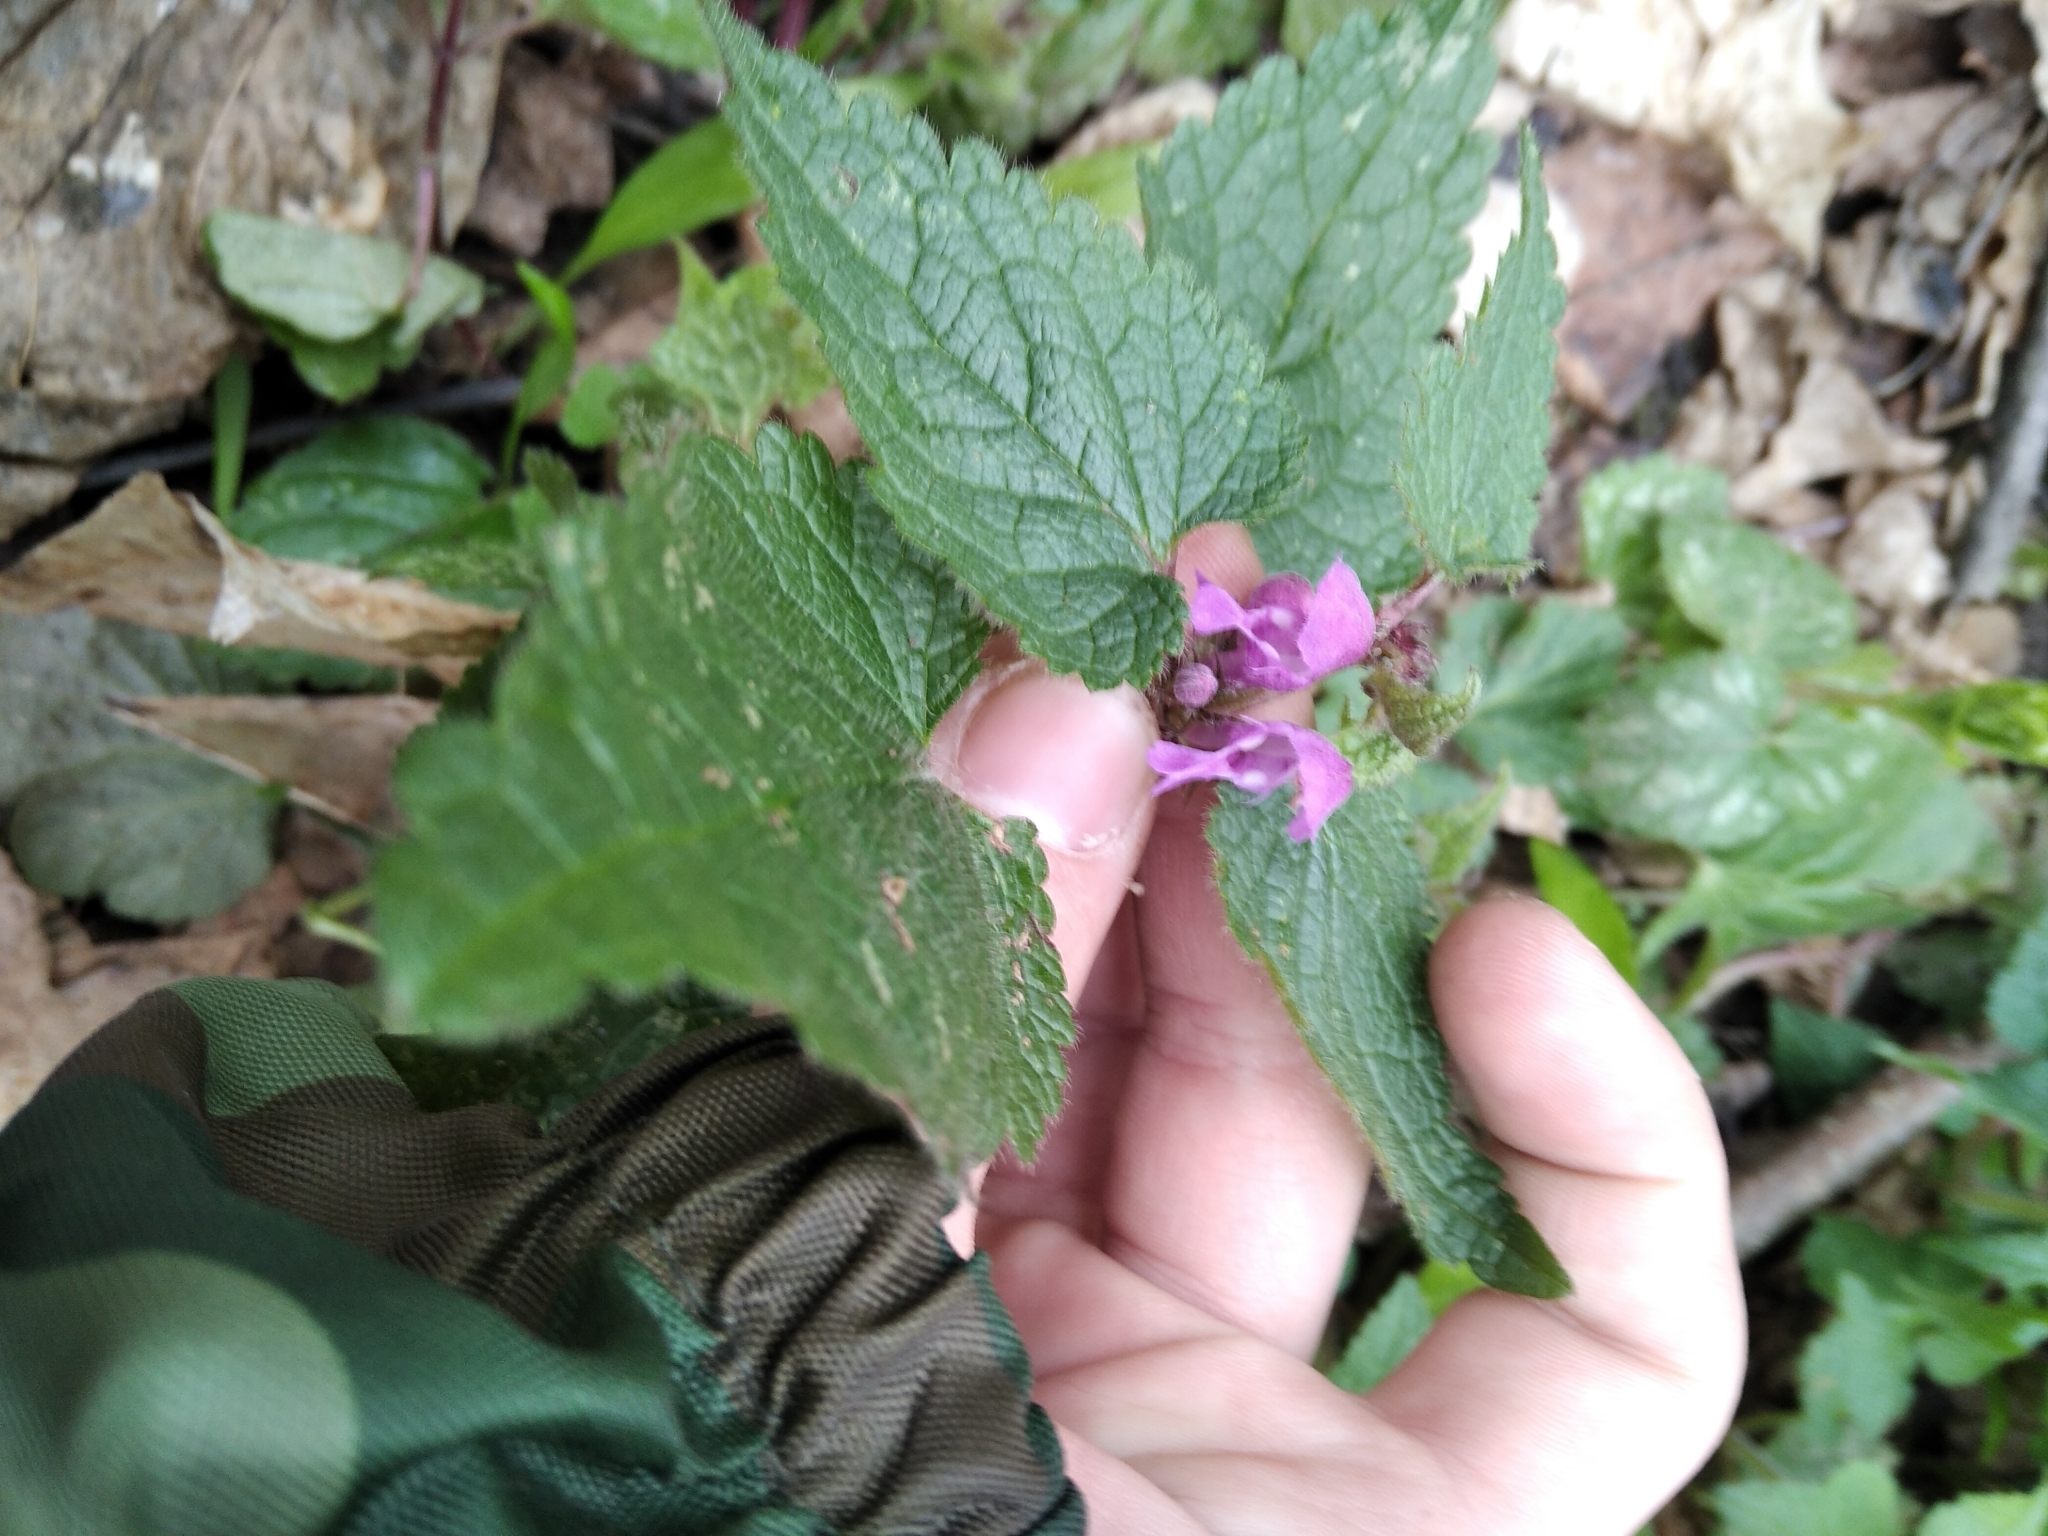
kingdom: Plantae
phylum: Tracheophyta
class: Magnoliopsida
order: Lamiales
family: Lamiaceae
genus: Lamium
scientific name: Lamium maculatum
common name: Spotted dead-nettle
